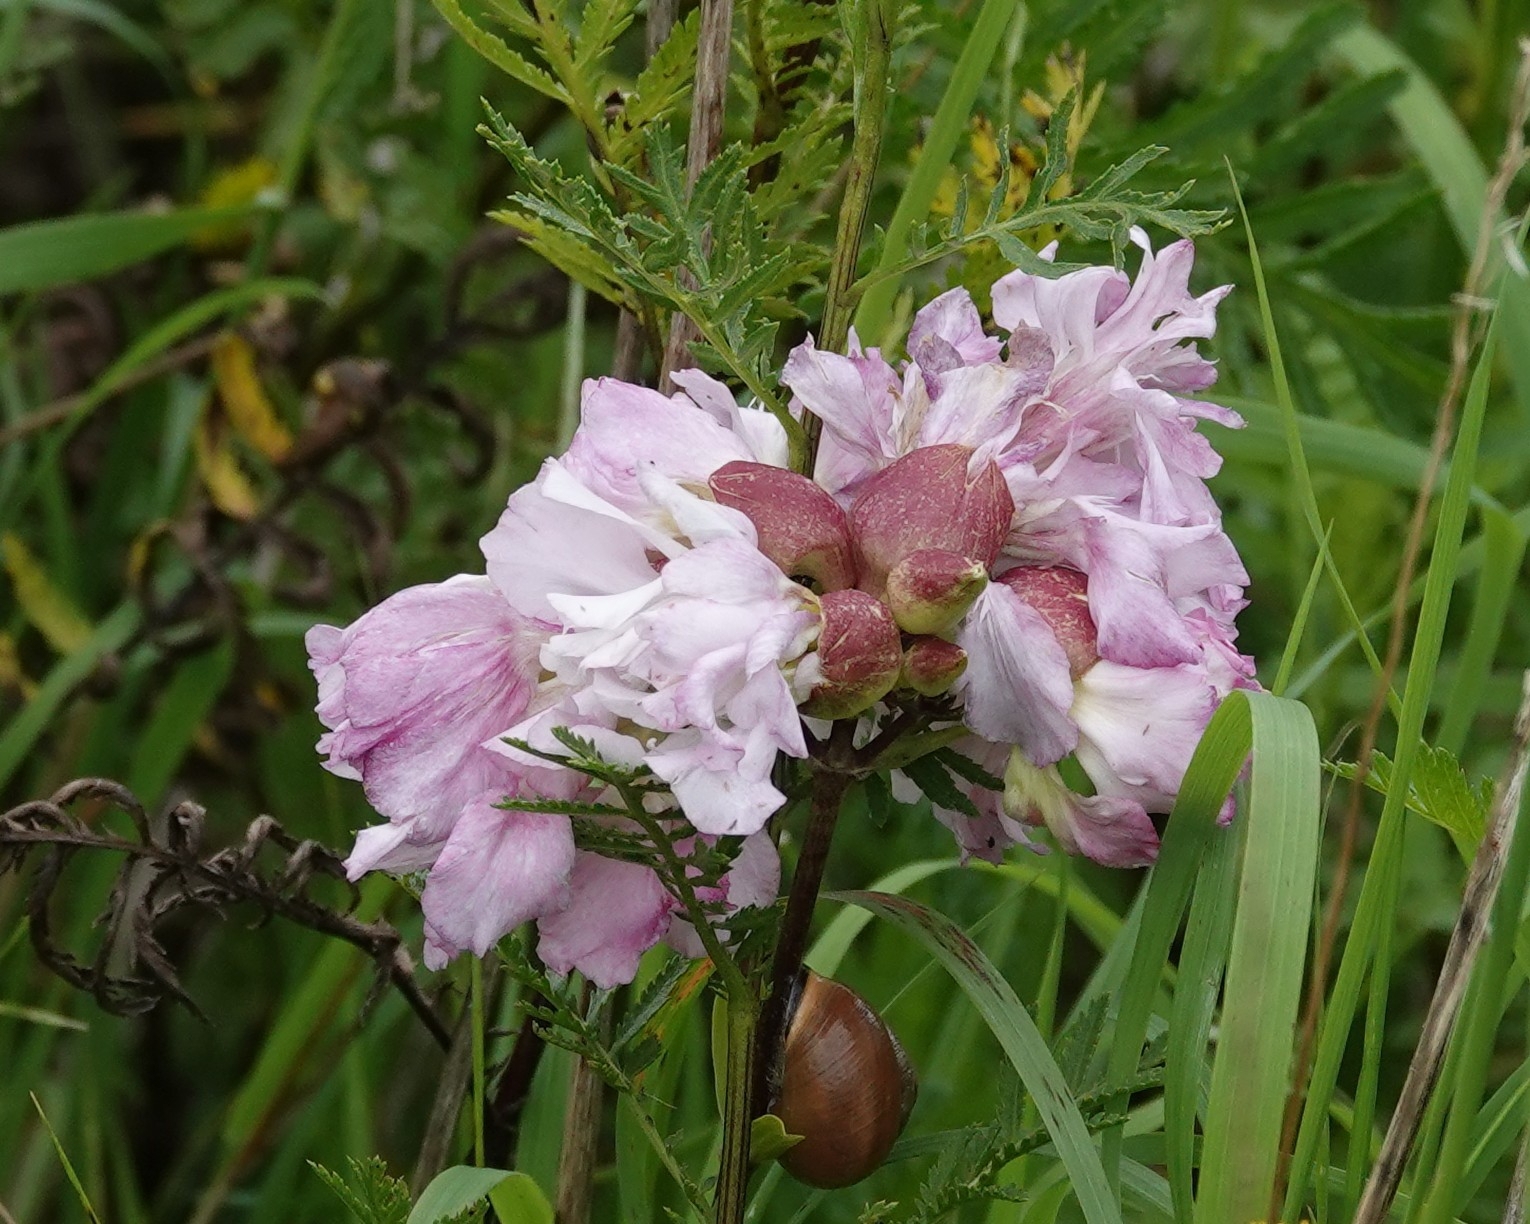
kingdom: Plantae
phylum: Tracheophyta
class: Magnoliopsida
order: Caryophyllales
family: Caryophyllaceae
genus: Saponaria
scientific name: Saponaria officinalis
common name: Soapwort
